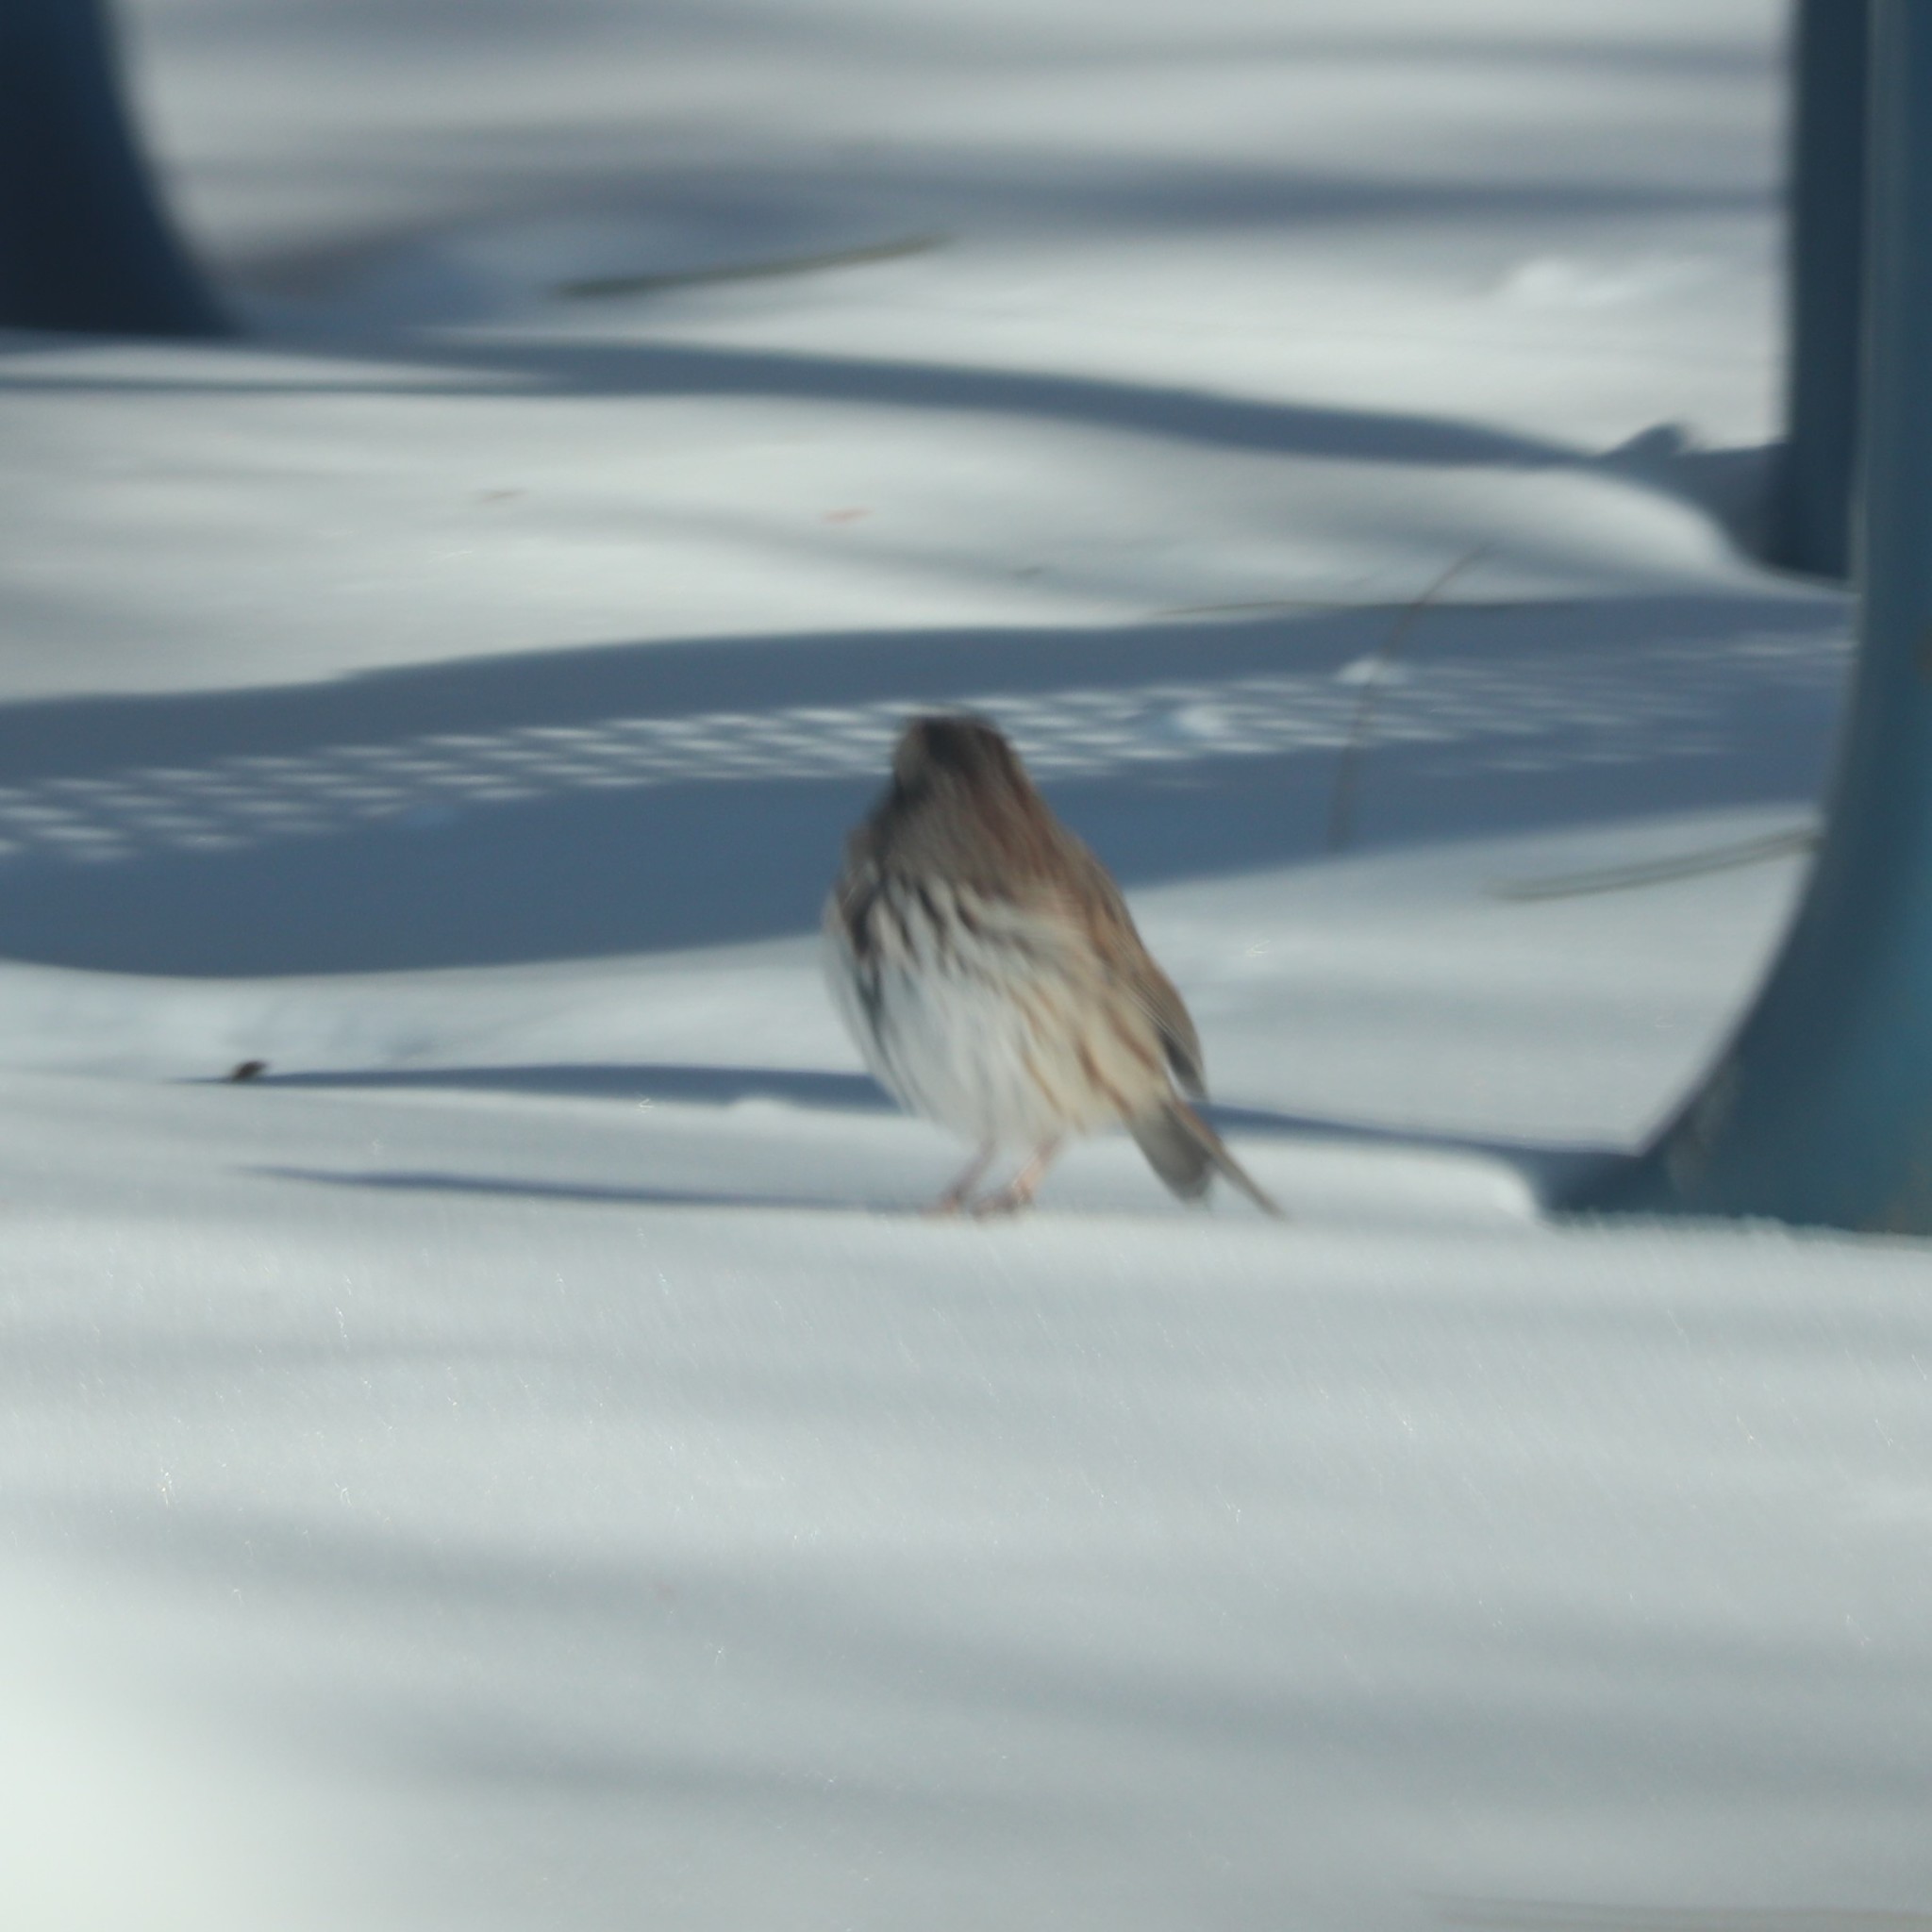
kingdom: Animalia
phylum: Chordata
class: Aves
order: Passeriformes
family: Passerellidae
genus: Melospiza
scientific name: Melospiza melodia
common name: Song sparrow
